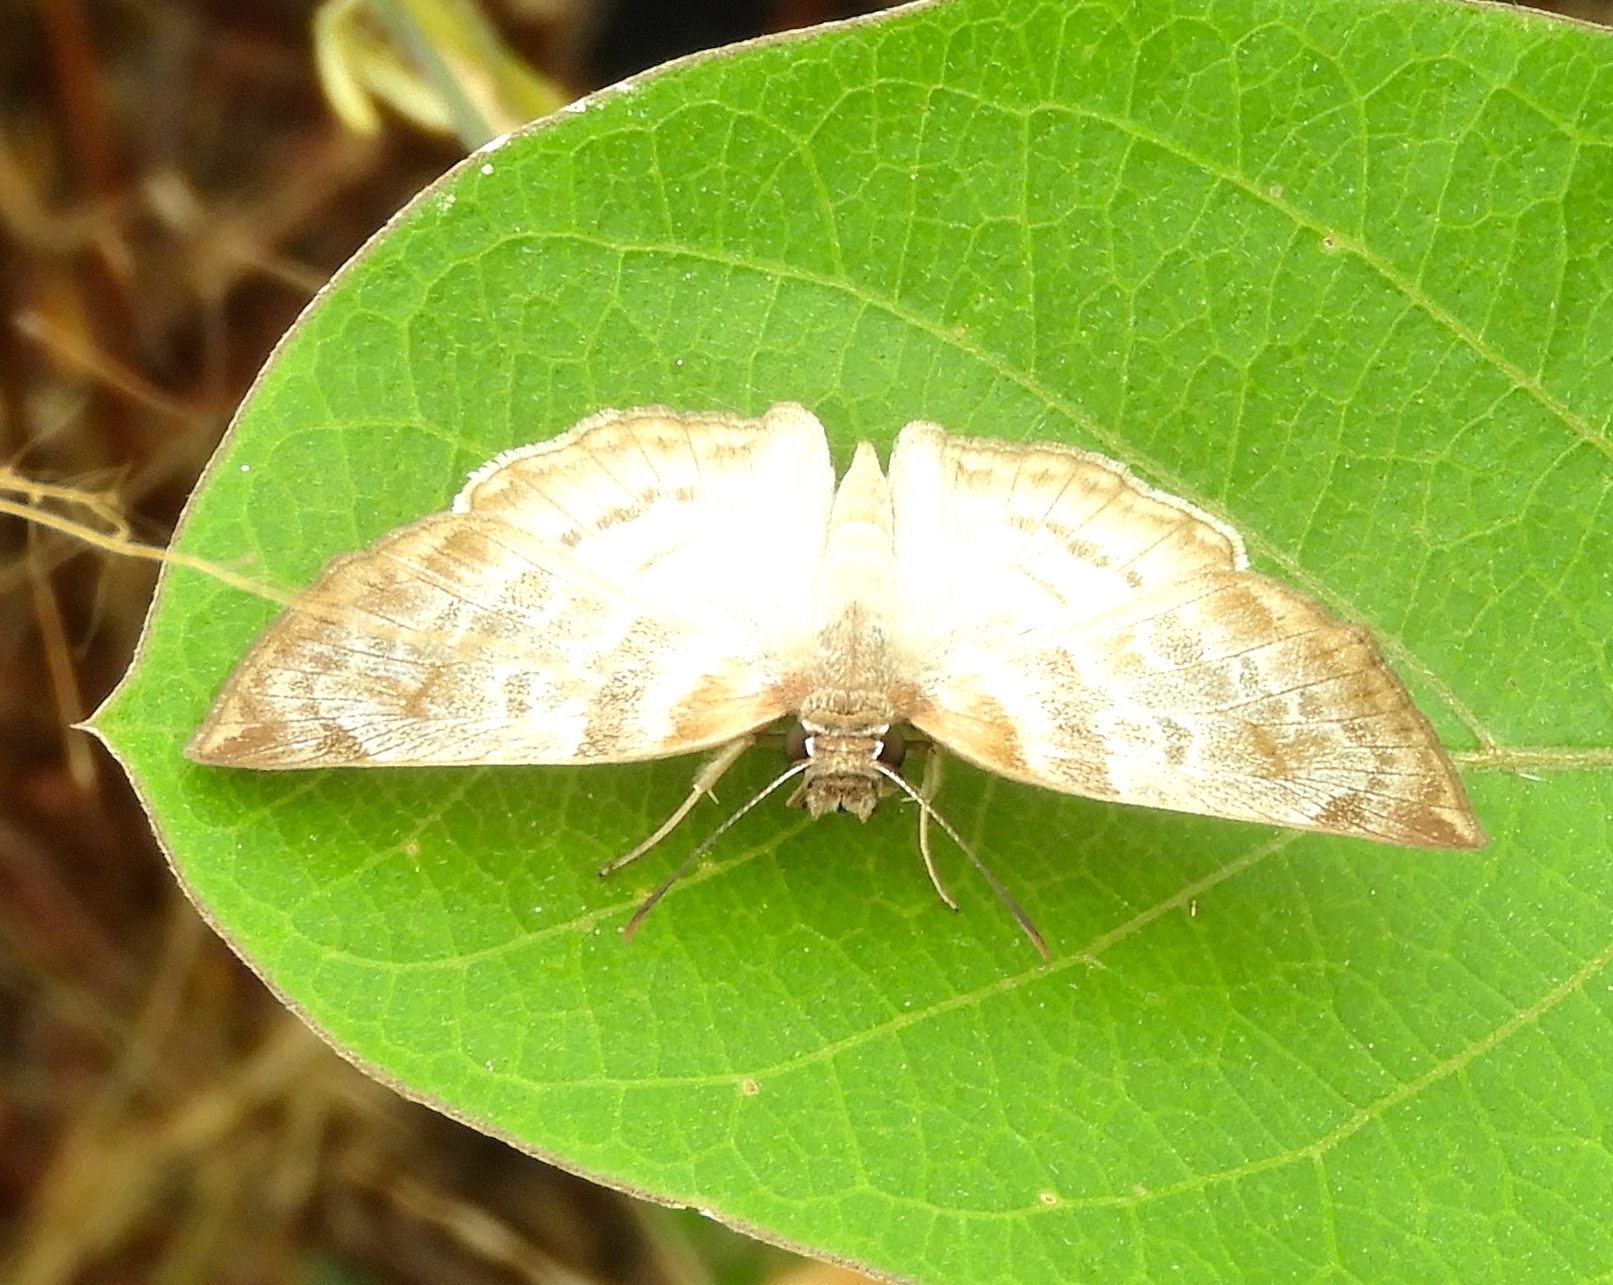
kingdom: Animalia
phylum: Arthropoda
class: Insecta
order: Lepidoptera
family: Hesperiidae
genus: Mylon
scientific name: Mylon pelopidas
